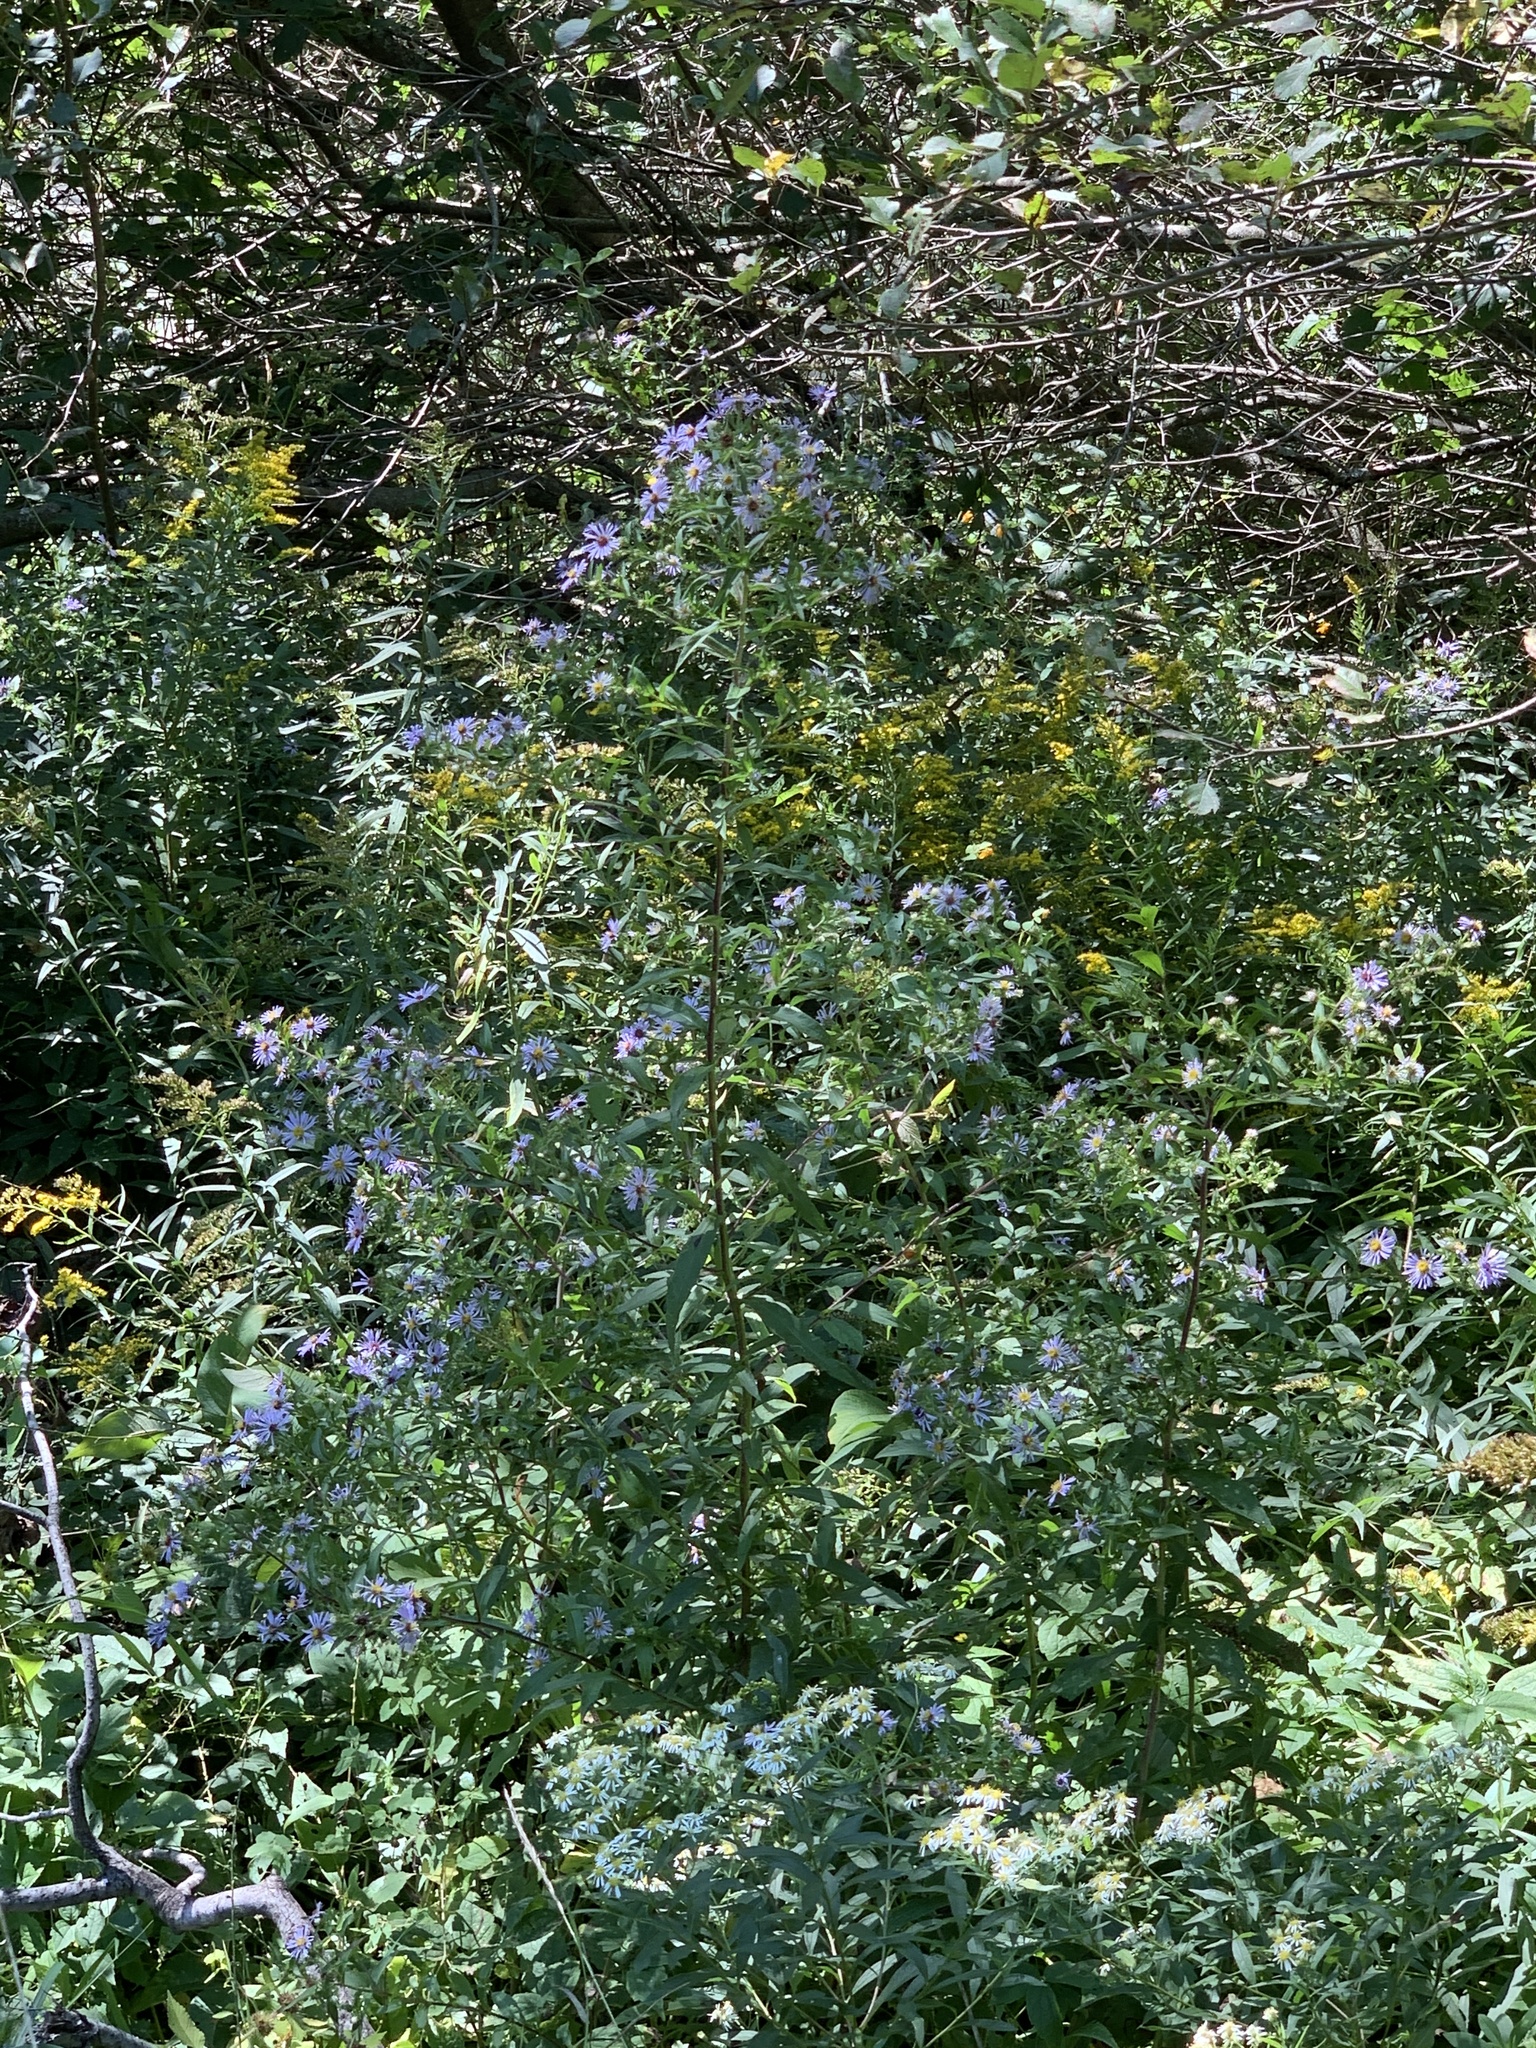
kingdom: Plantae
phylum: Tracheophyta
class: Magnoliopsida
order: Asterales
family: Asteraceae
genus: Symphyotrichum
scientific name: Symphyotrichum puniceum
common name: Bog aster
